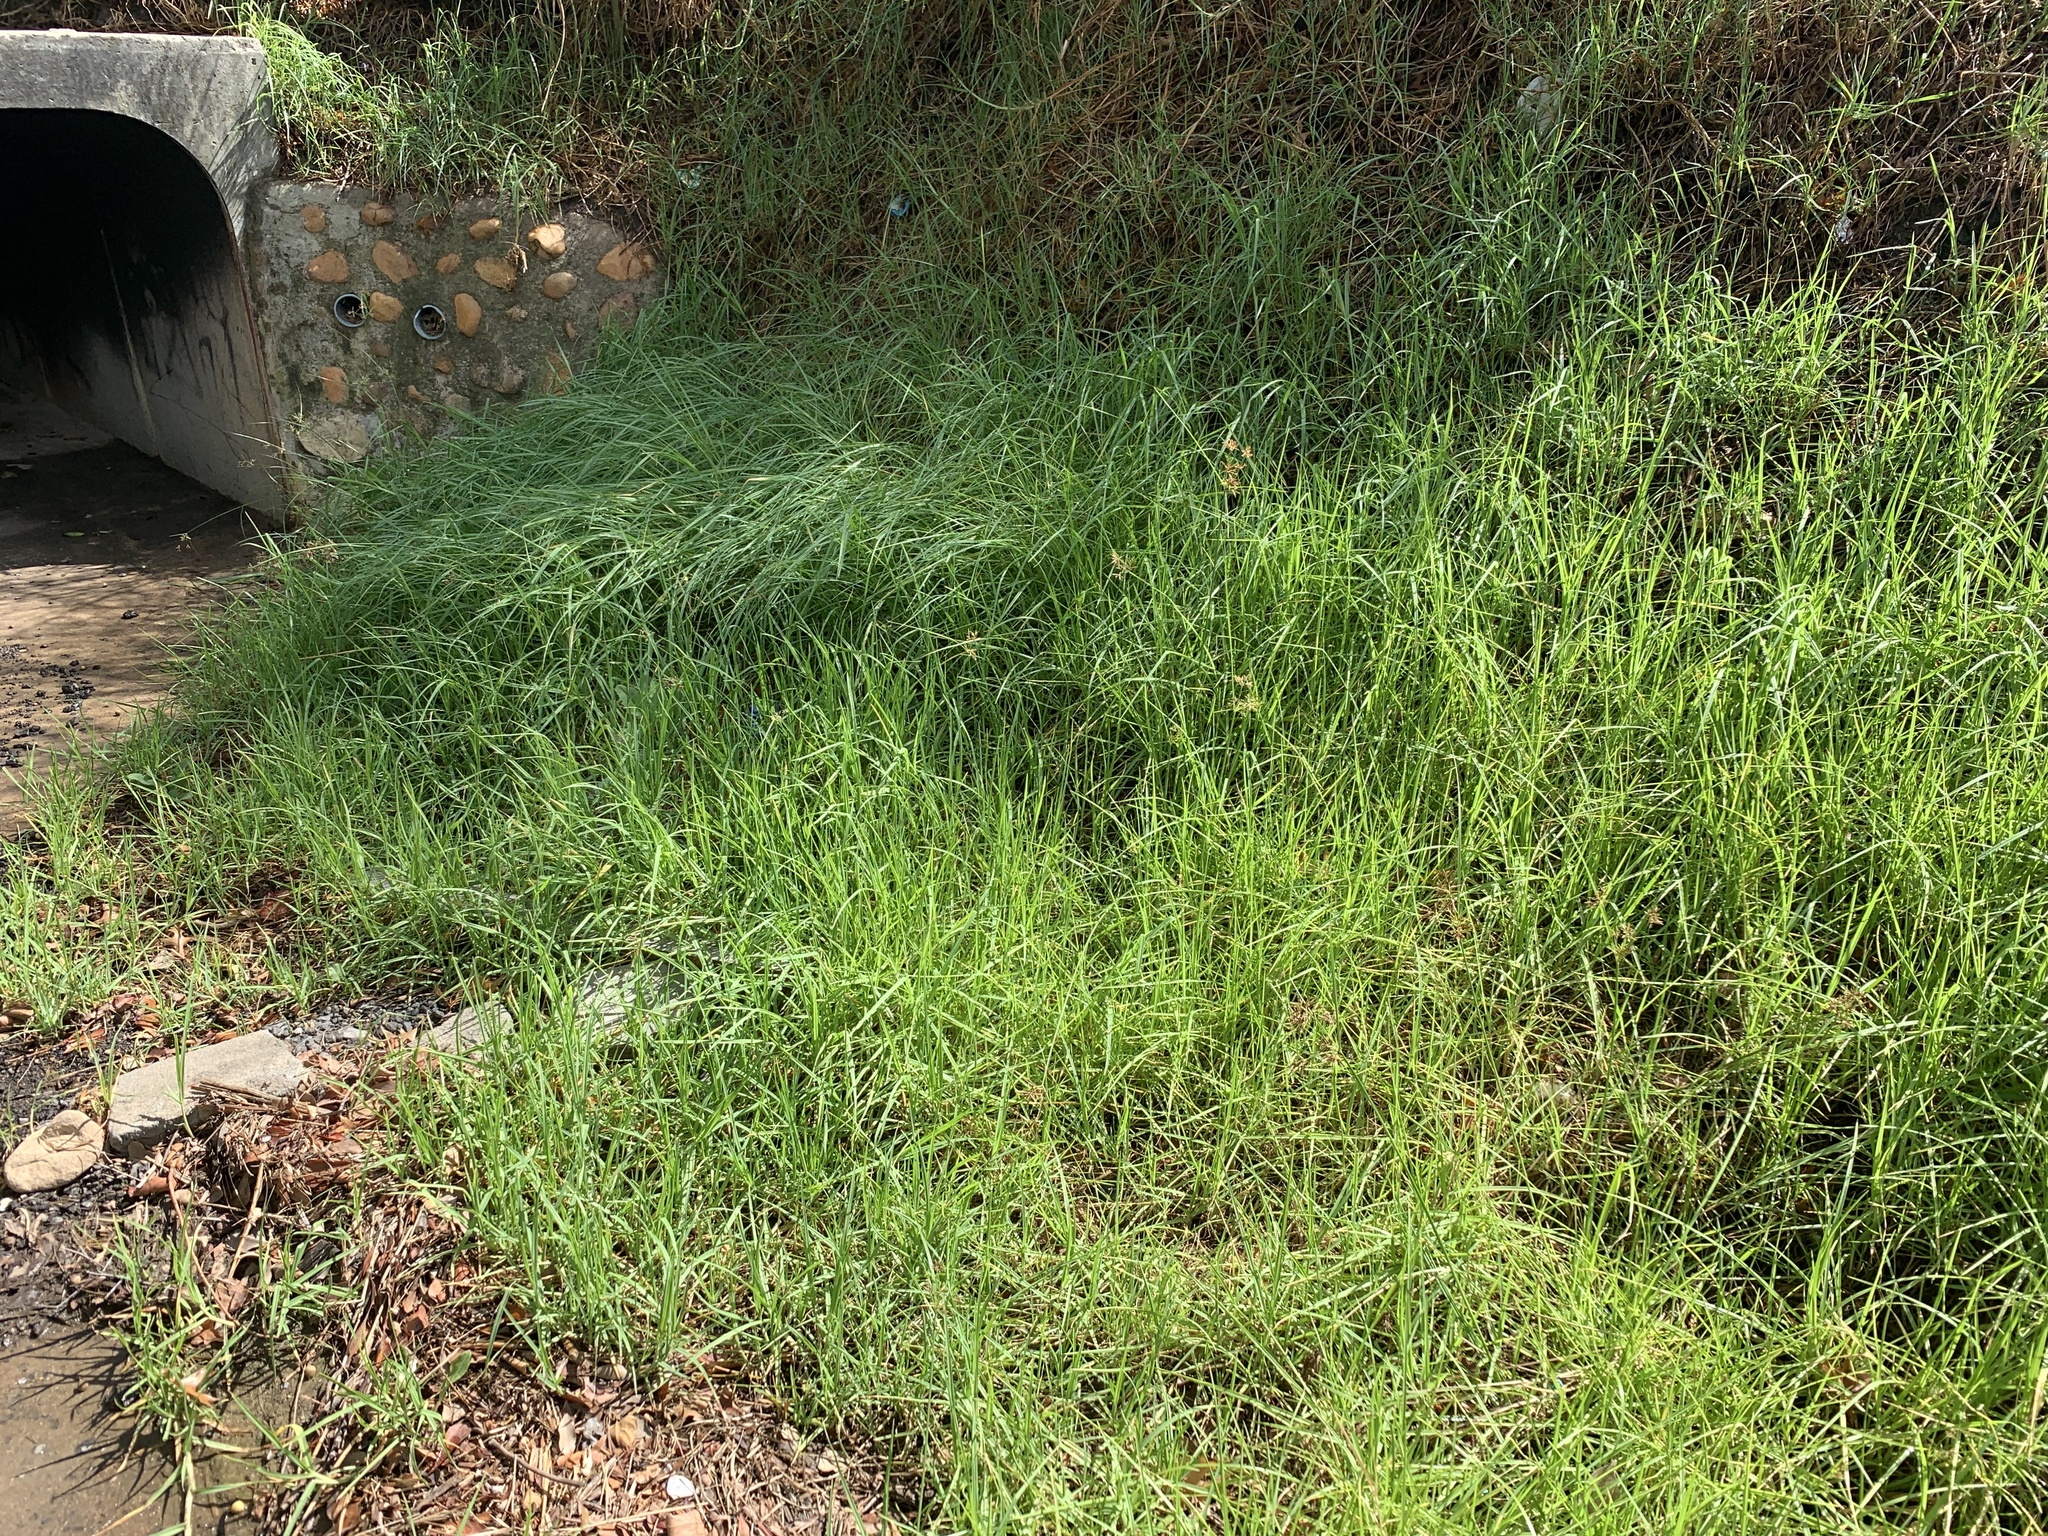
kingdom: Plantae
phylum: Tracheophyta
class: Liliopsida
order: Poales
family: Poaceae
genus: Cenchrus
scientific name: Cenchrus clandestinus
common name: Kikuyugrass
